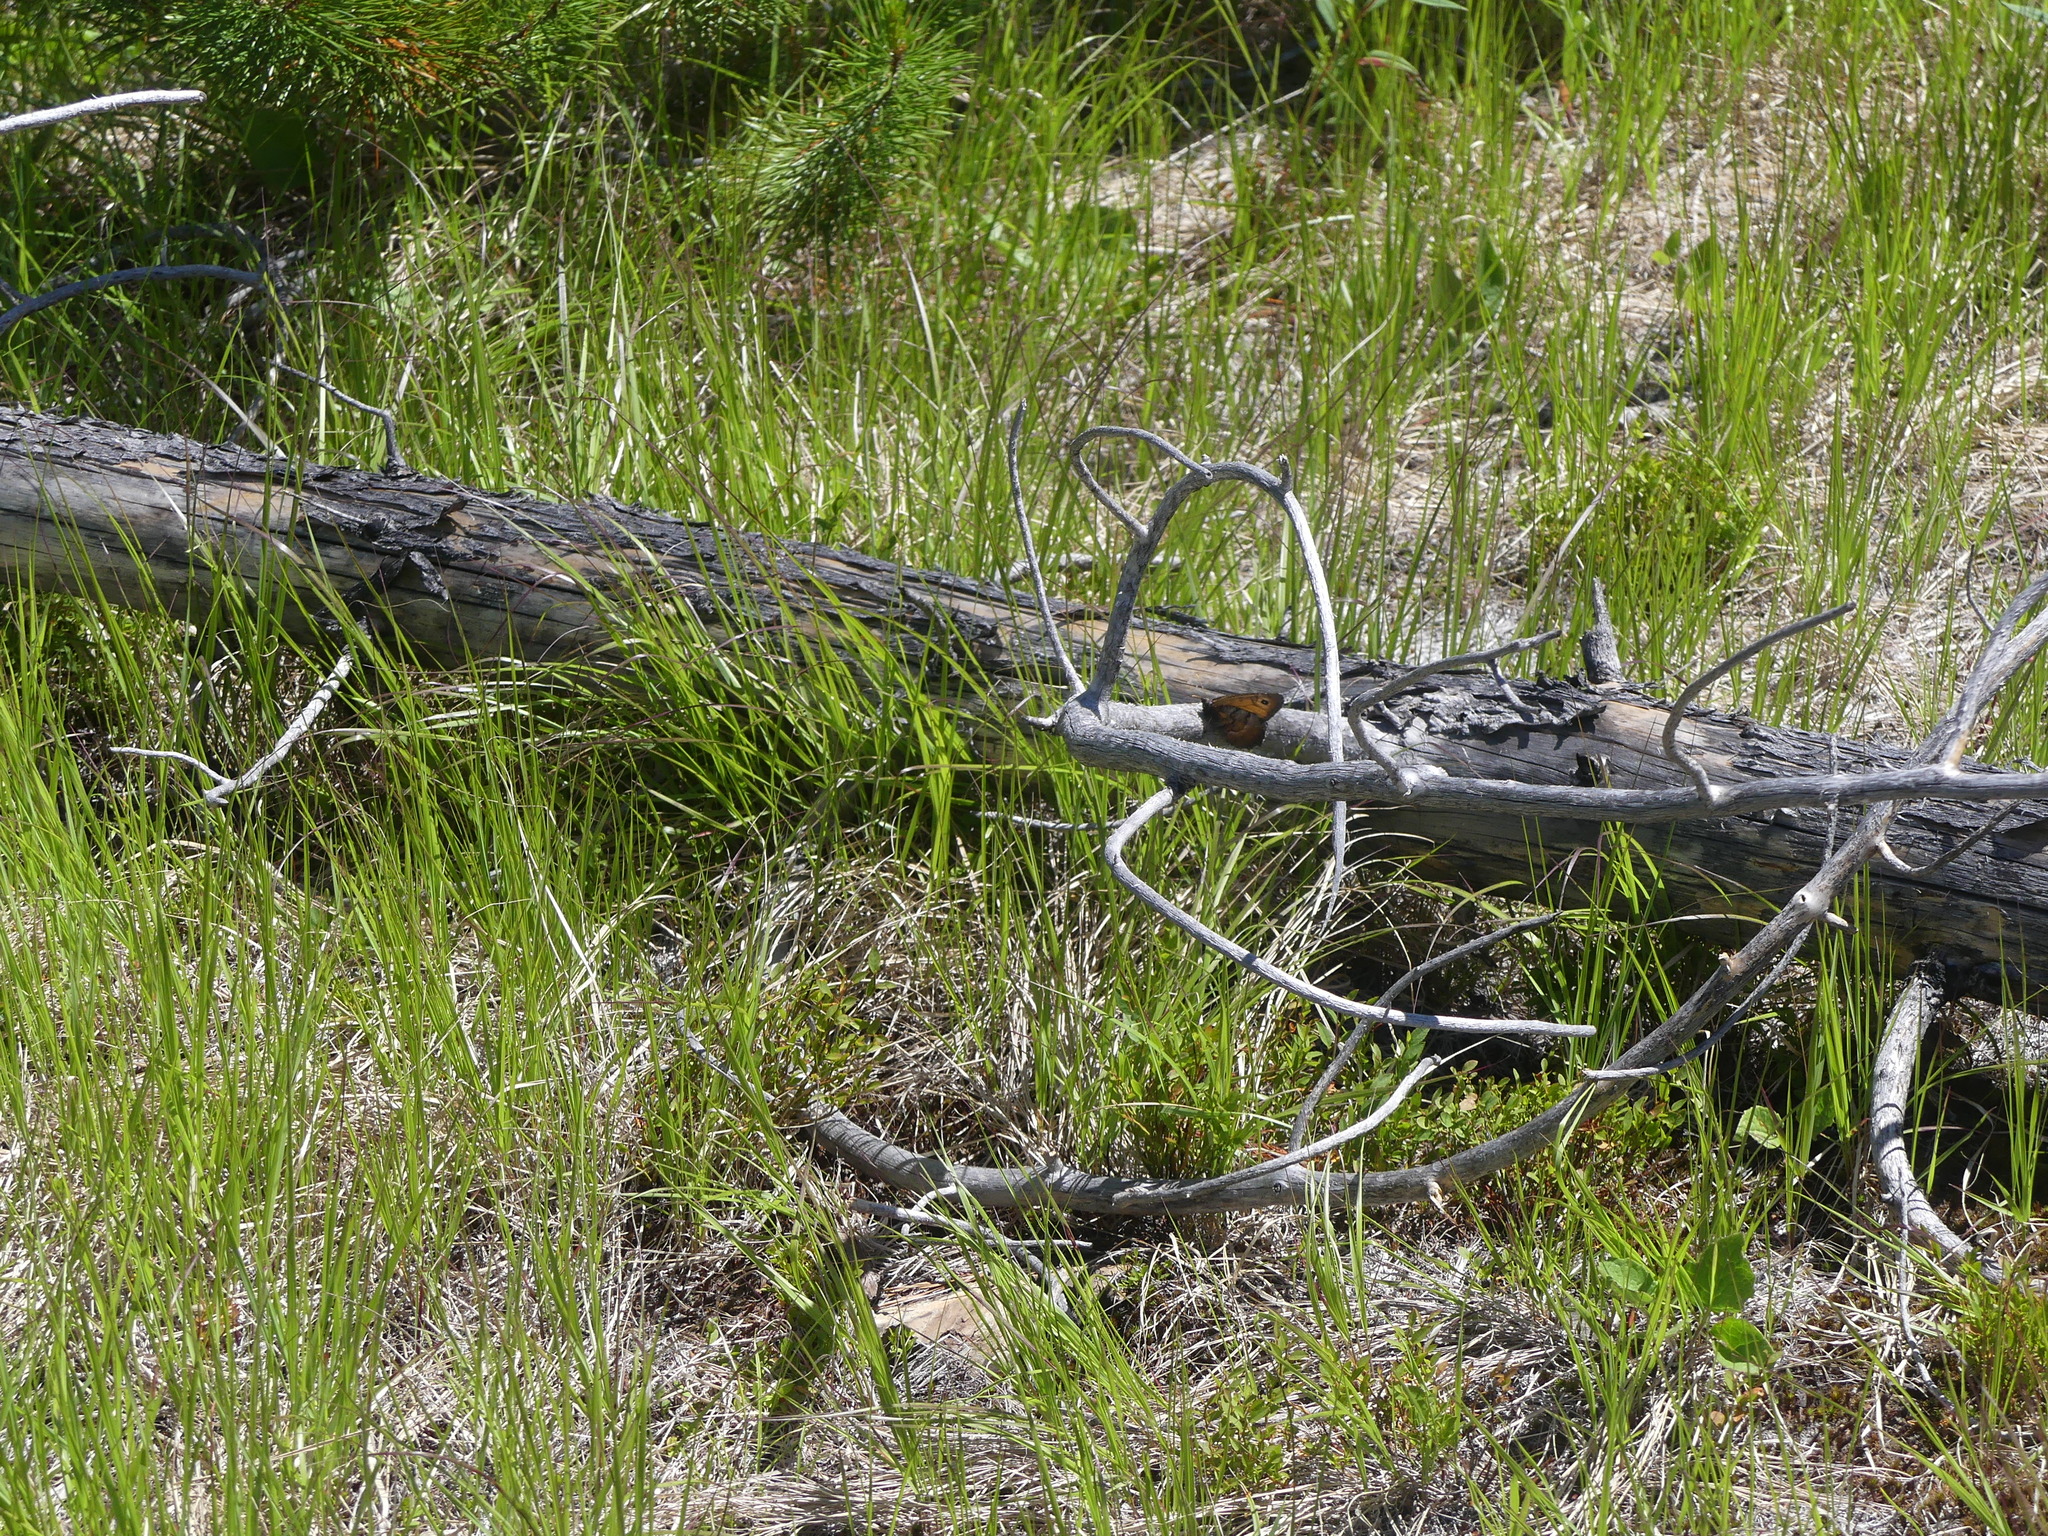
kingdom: Animalia
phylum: Arthropoda
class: Insecta
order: Lepidoptera
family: Nymphalidae
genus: Oeneis
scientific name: Oeneis macounii
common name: Macoun's arctic
